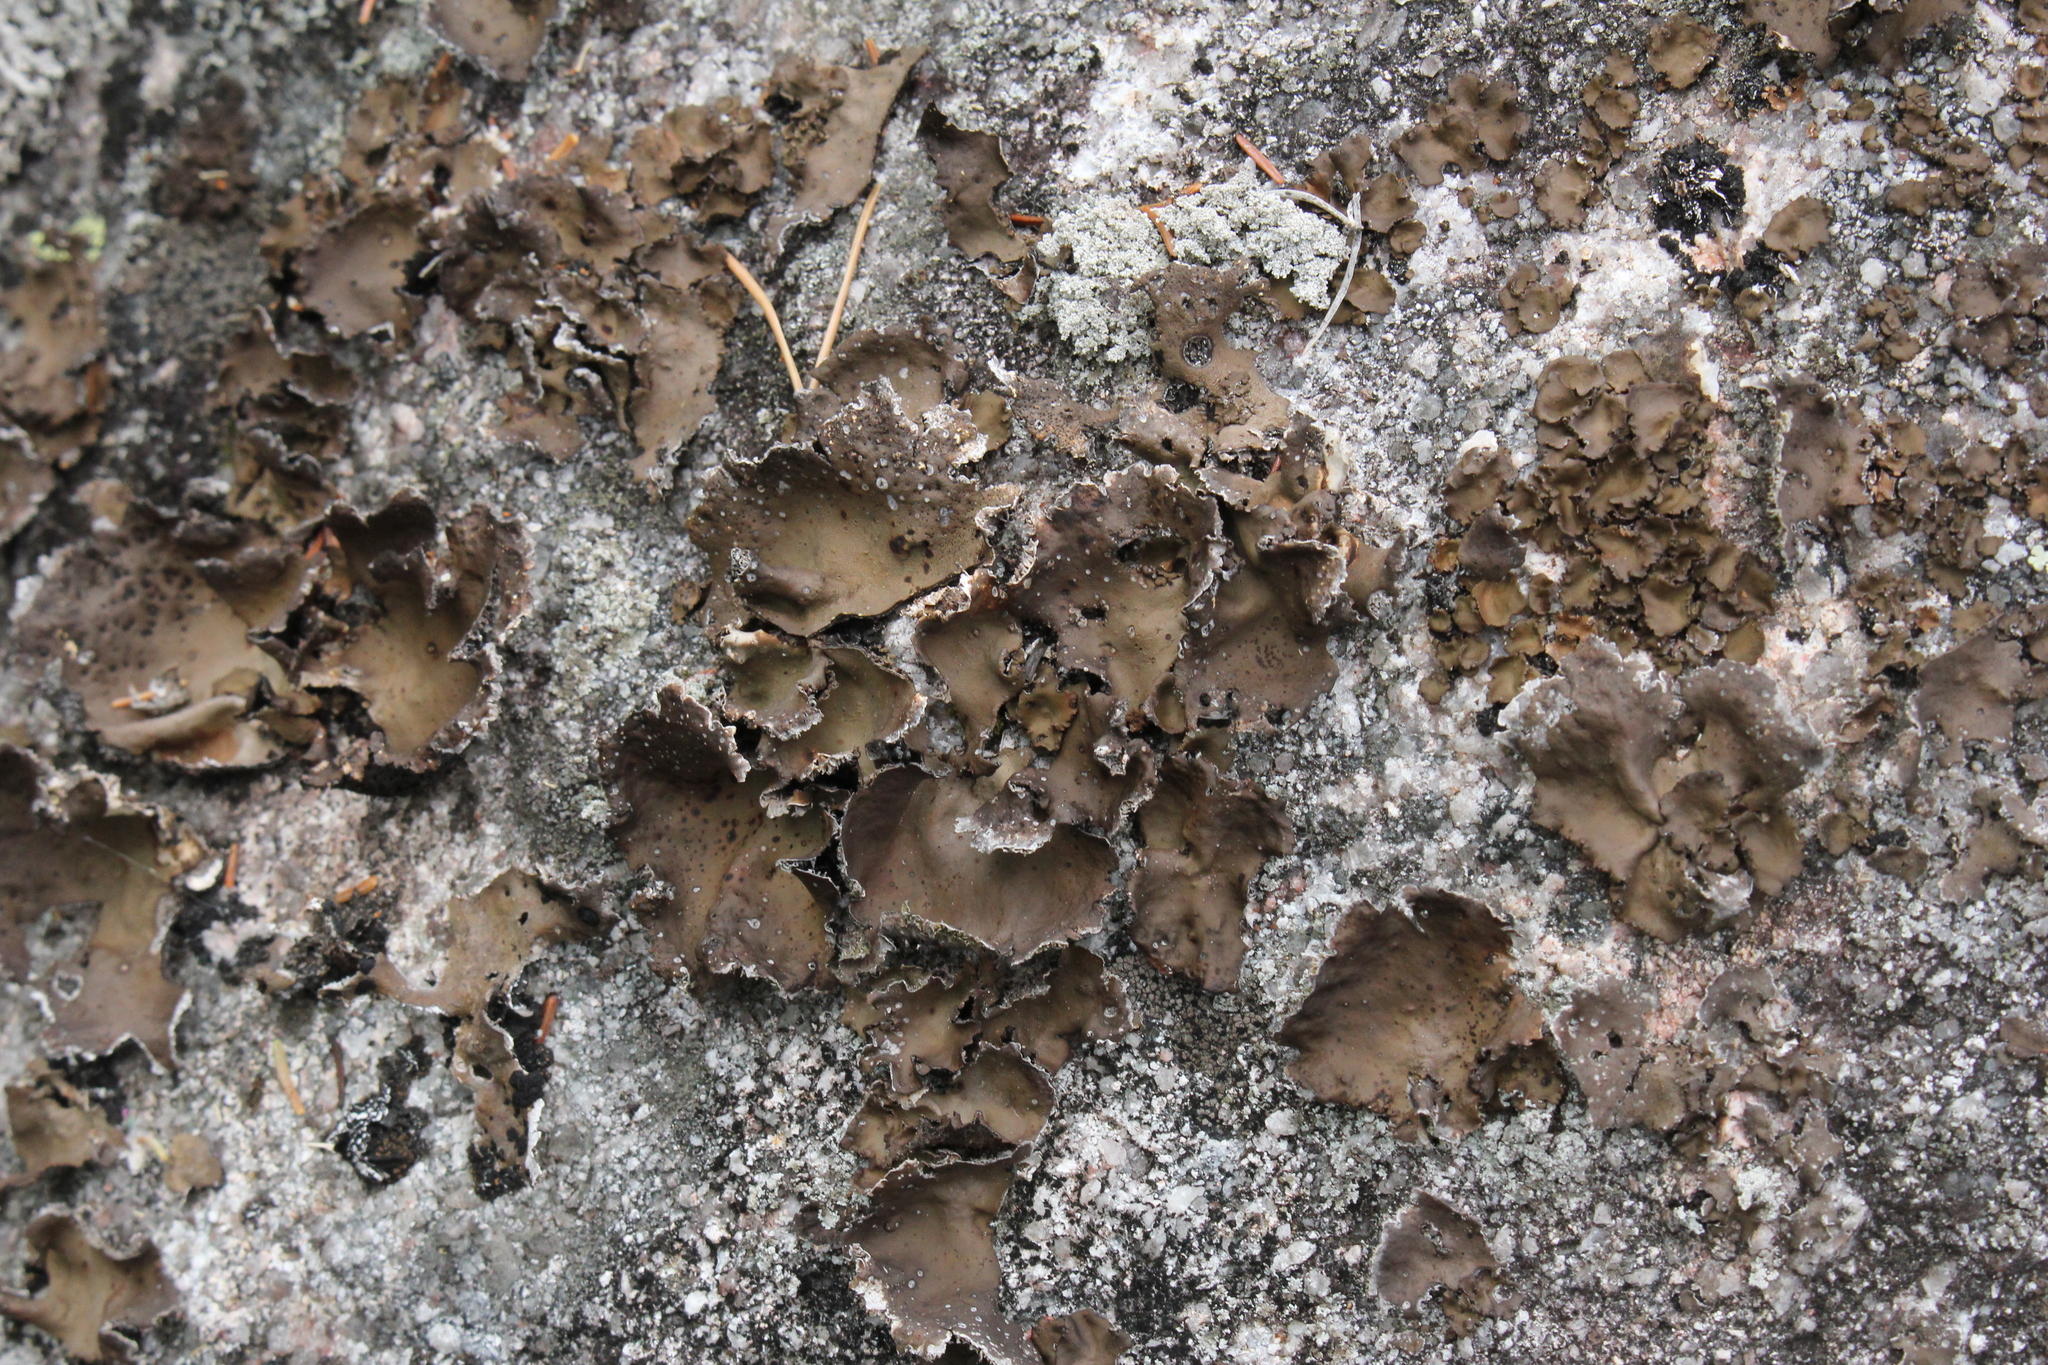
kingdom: Fungi
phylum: Ascomycota
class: Lecanoromycetes
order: Umbilicariales
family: Umbilicariaceae
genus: Umbilicaria
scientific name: Umbilicaria muhlenbergii
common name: Lesser rocktripe
